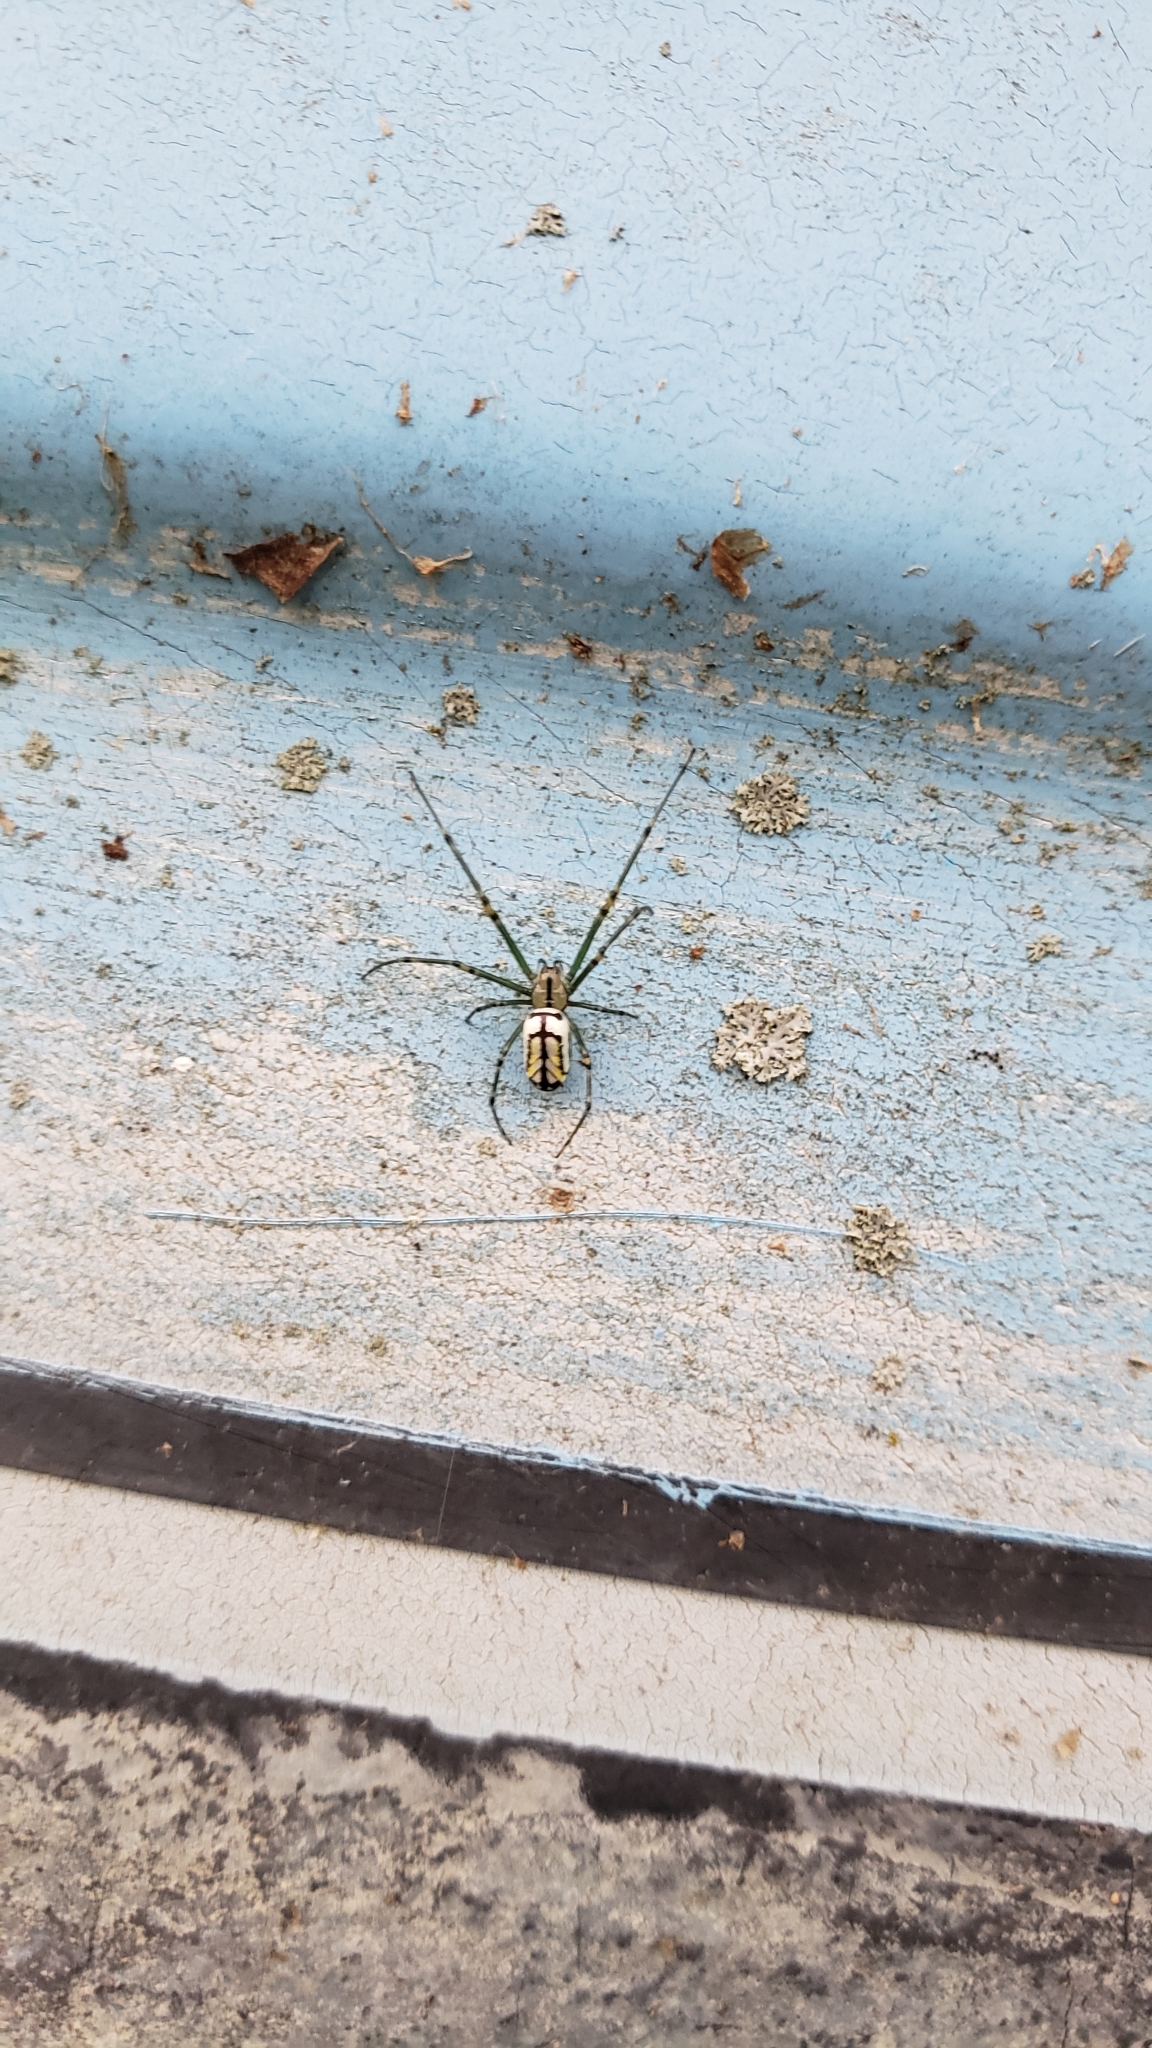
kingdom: Animalia
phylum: Arthropoda
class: Arachnida
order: Araneae
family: Tetragnathidae
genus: Leucauge
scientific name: Leucauge venusta
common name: Longjawed orb weavers
